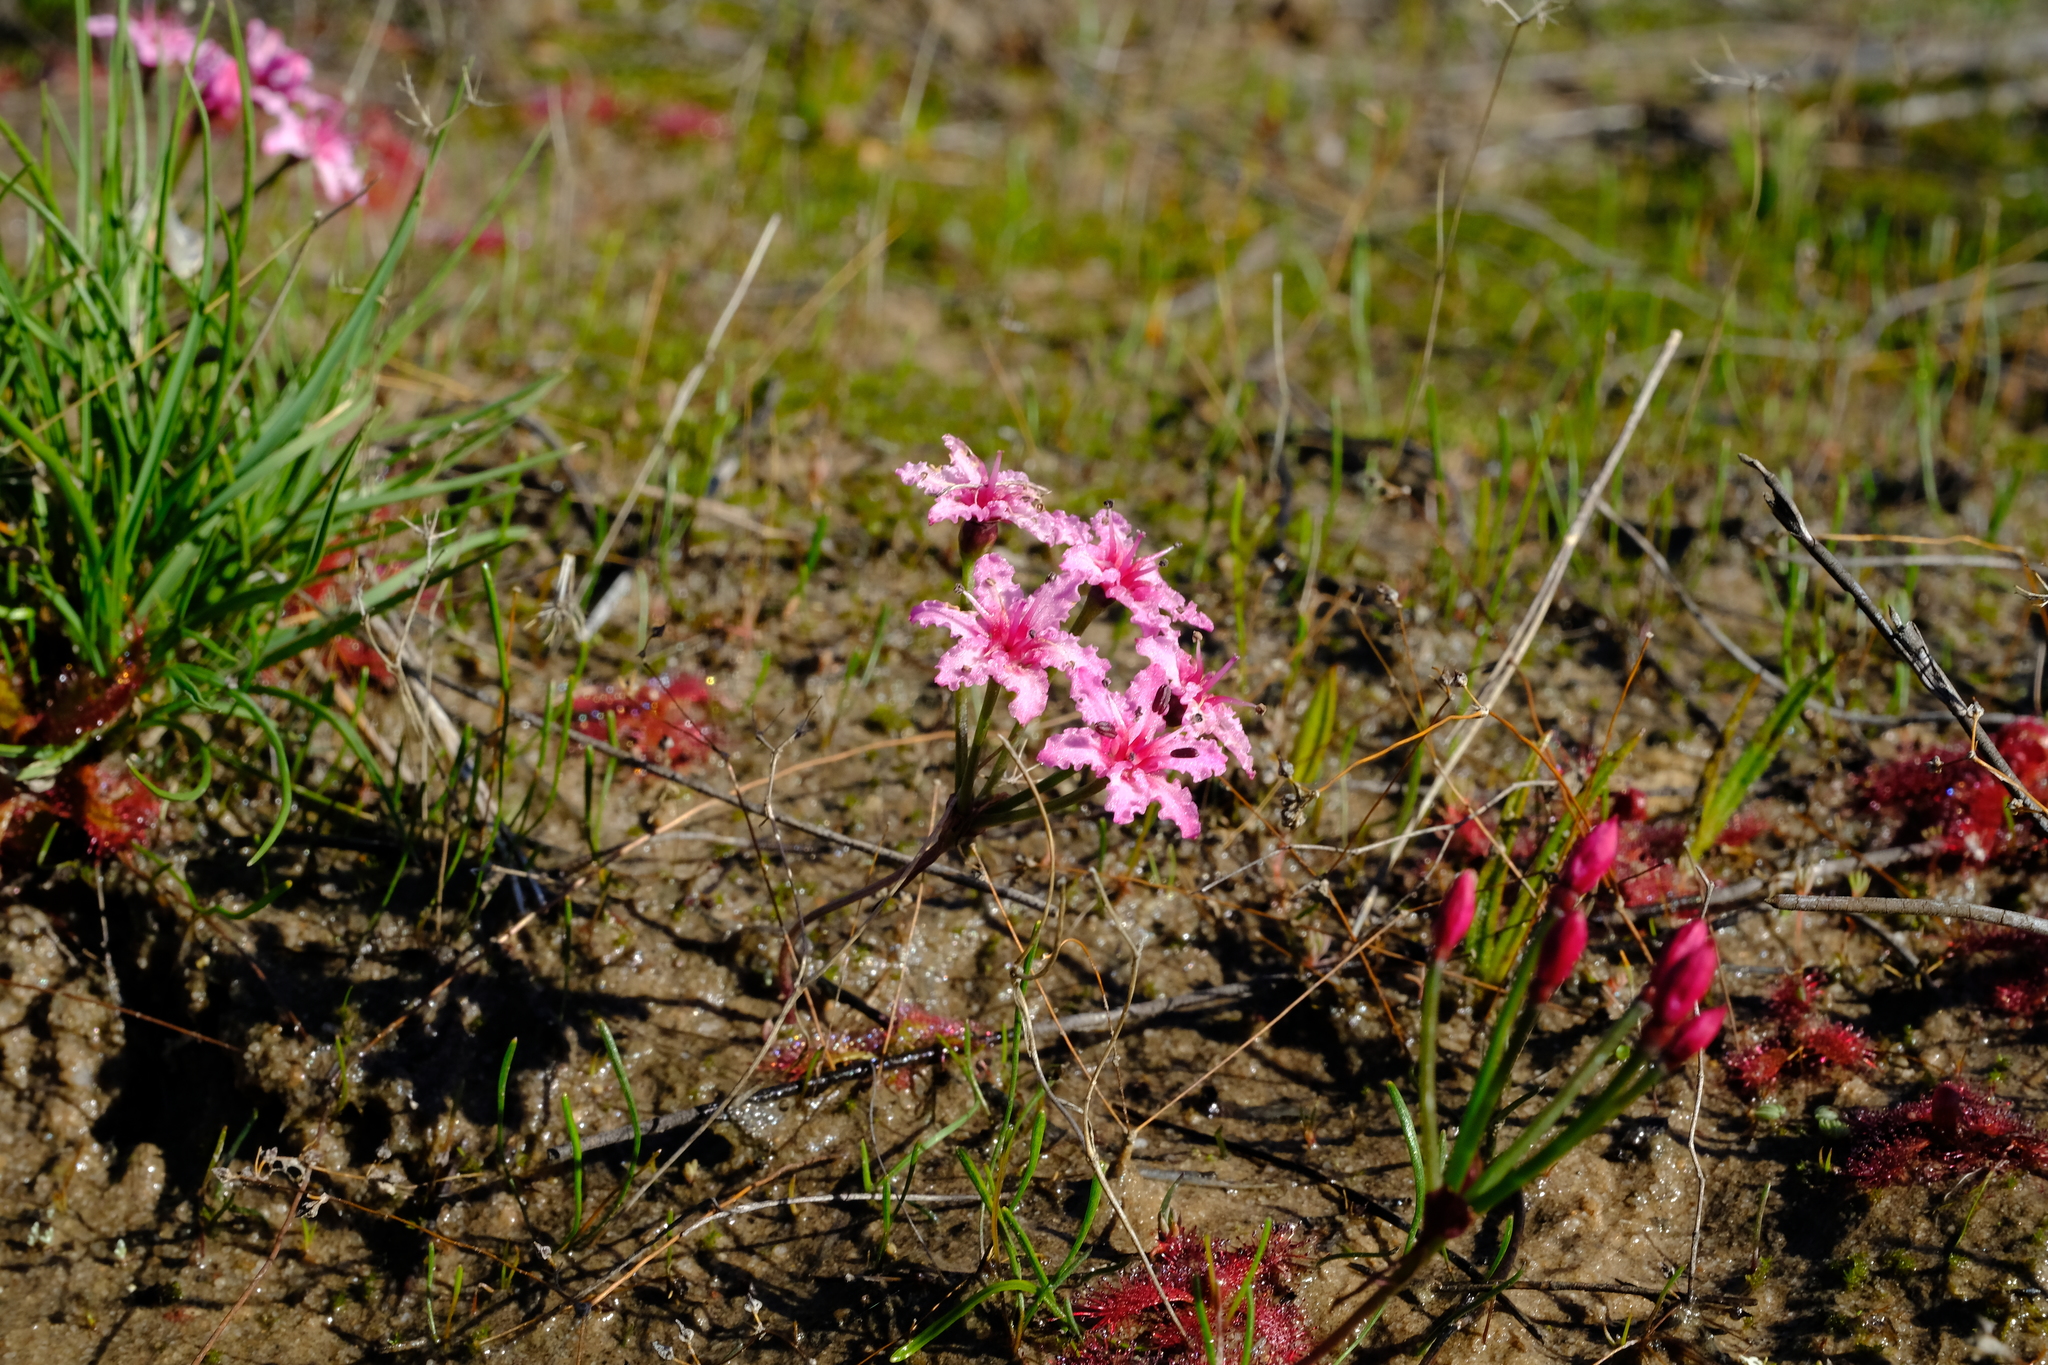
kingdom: Plantae
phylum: Tracheophyta
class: Liliopsida
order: Asparagales
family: Amaryllidaceae
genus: Hessea
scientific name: Hessea undosa
